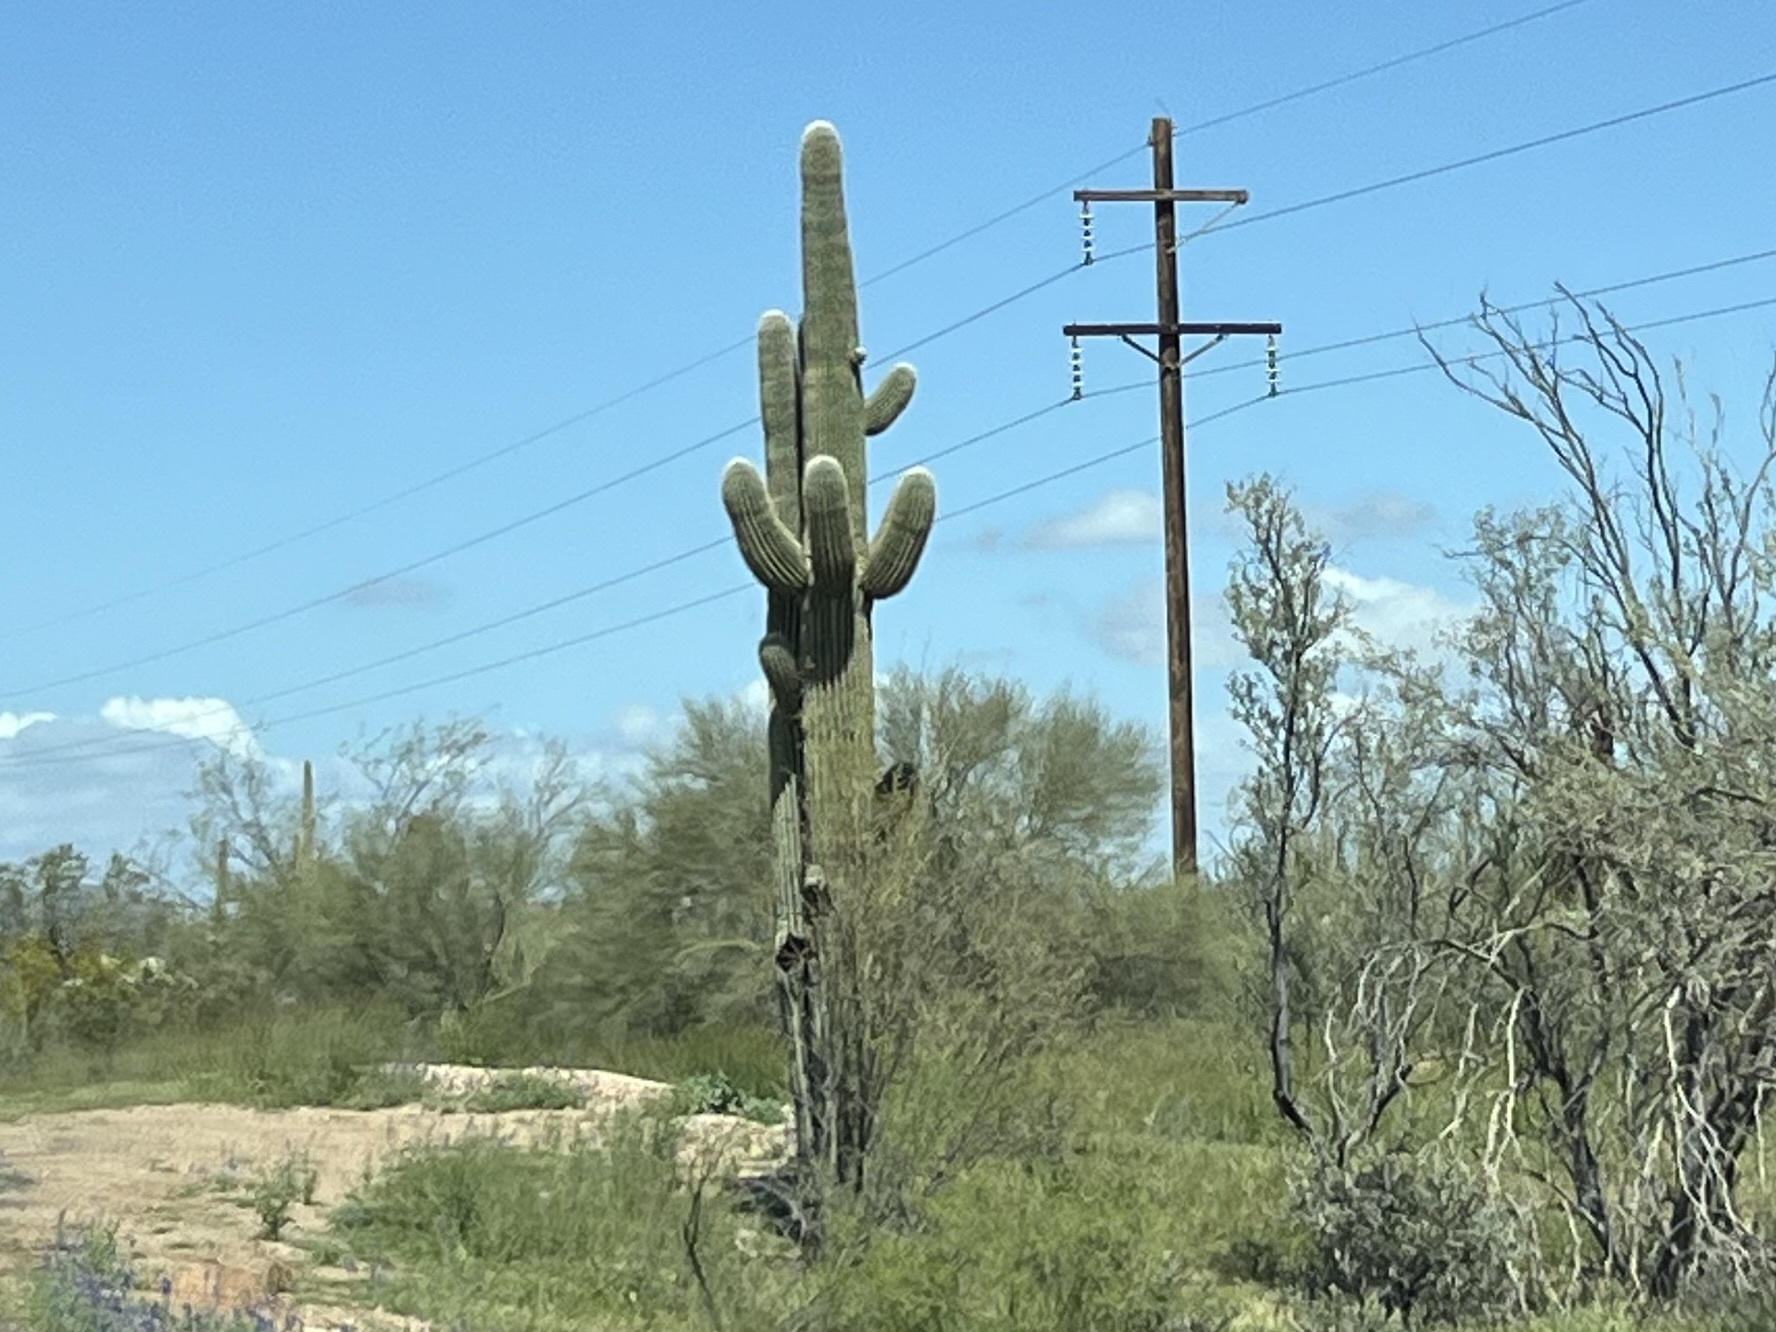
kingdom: Plantae
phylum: Tracheophyta
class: Magnoliopsida
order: Caryophyllales
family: Cactaceae
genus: Carnegiea
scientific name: Carnegiea gigantea
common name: Saguaro
